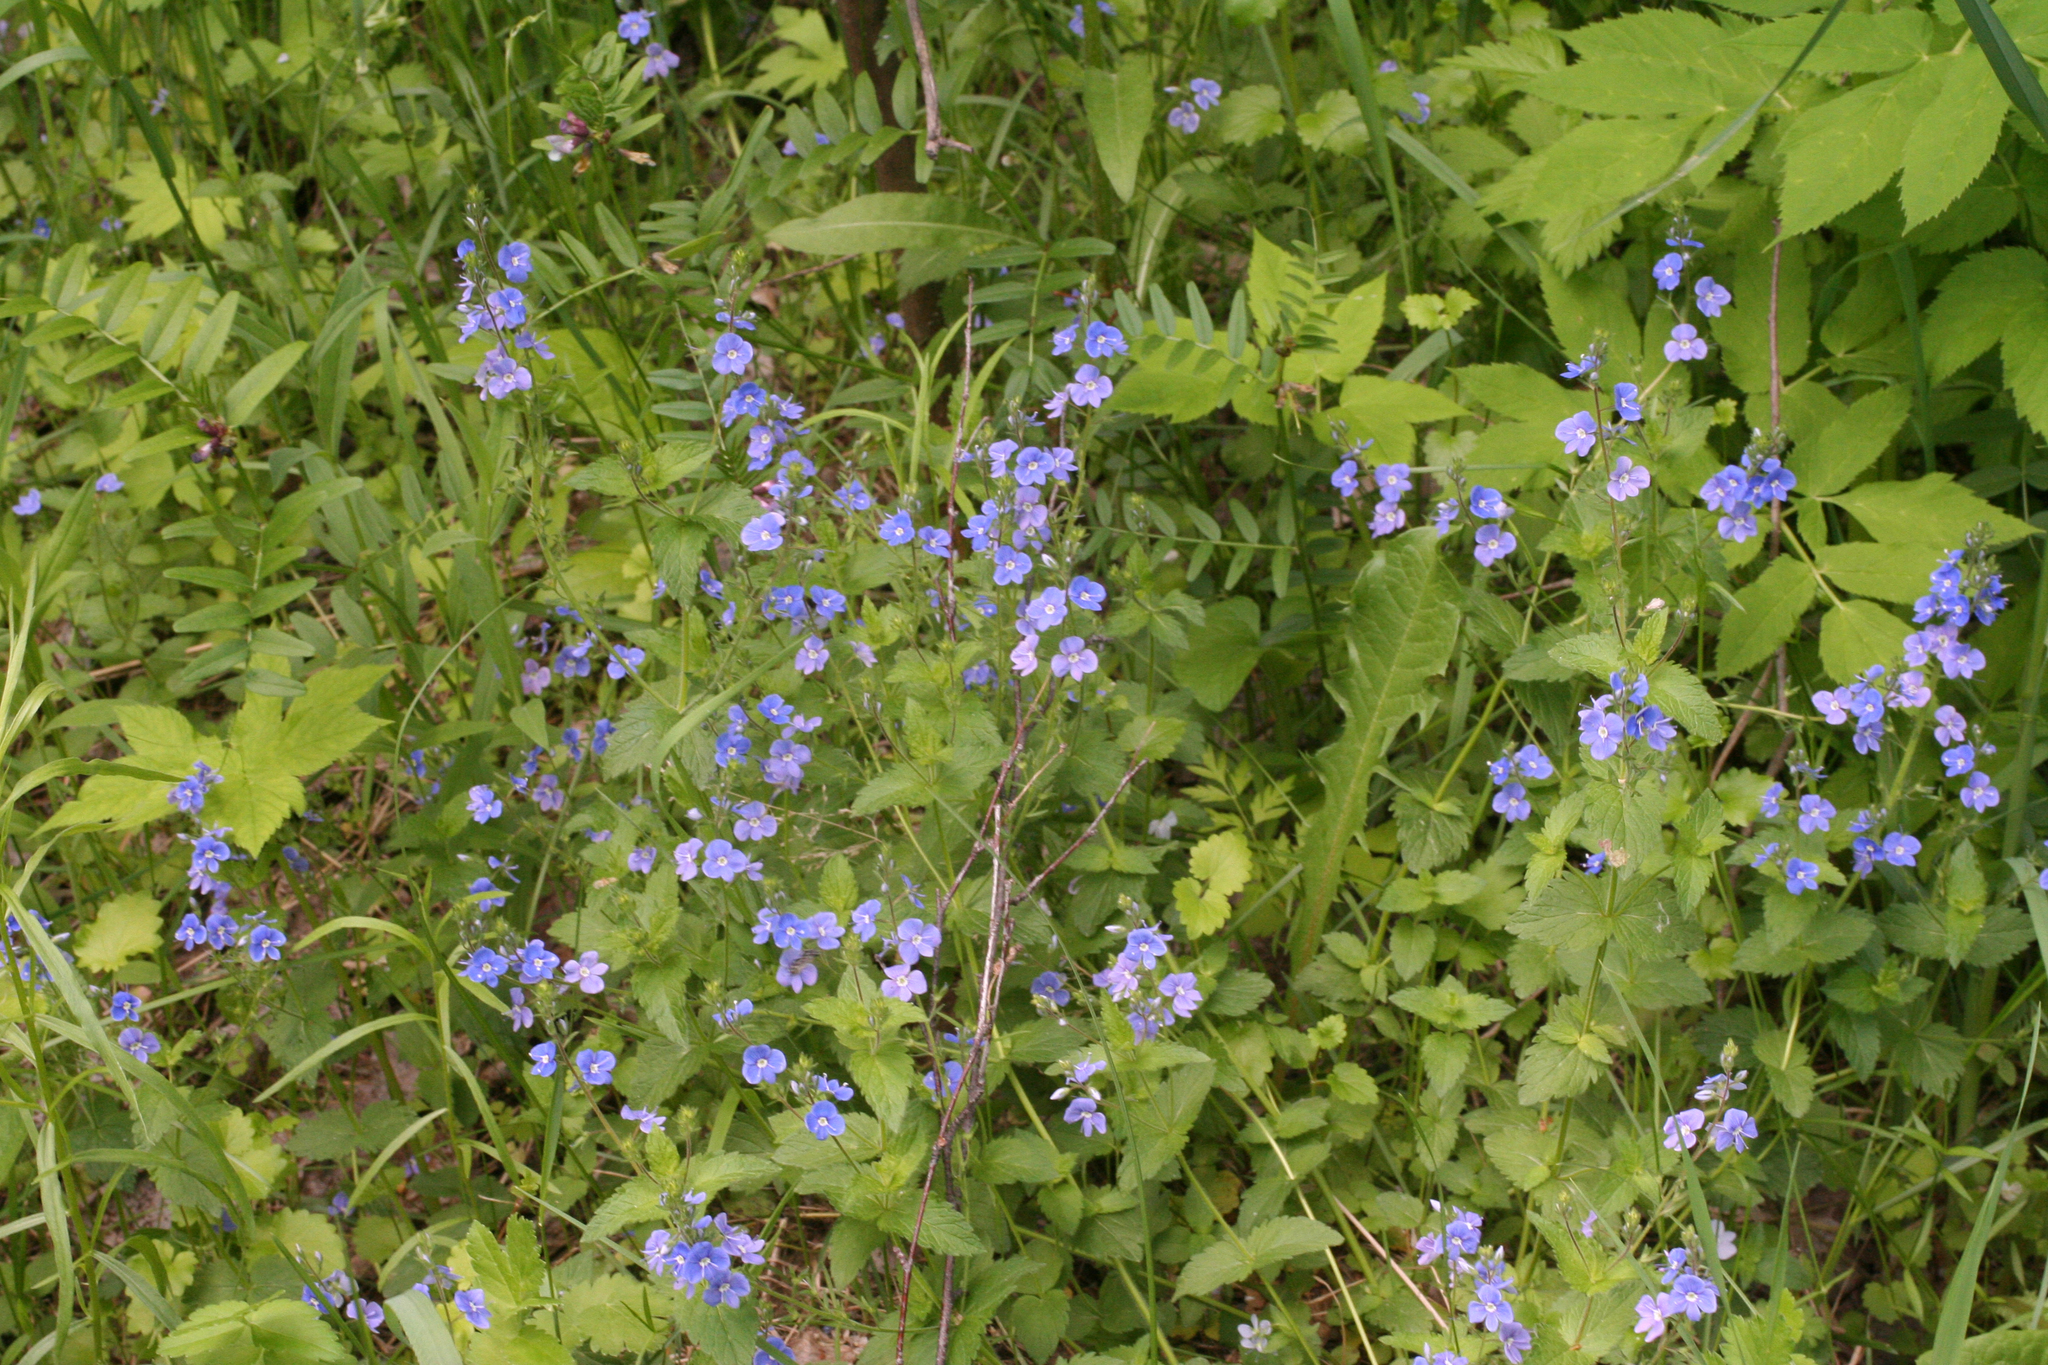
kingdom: Plantae
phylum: Tracheophyta
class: Magnoliopsida
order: Lamiales
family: Plantaginaceae
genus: Veronica
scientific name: Veronica chamaedrys
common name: Germander speedwell
